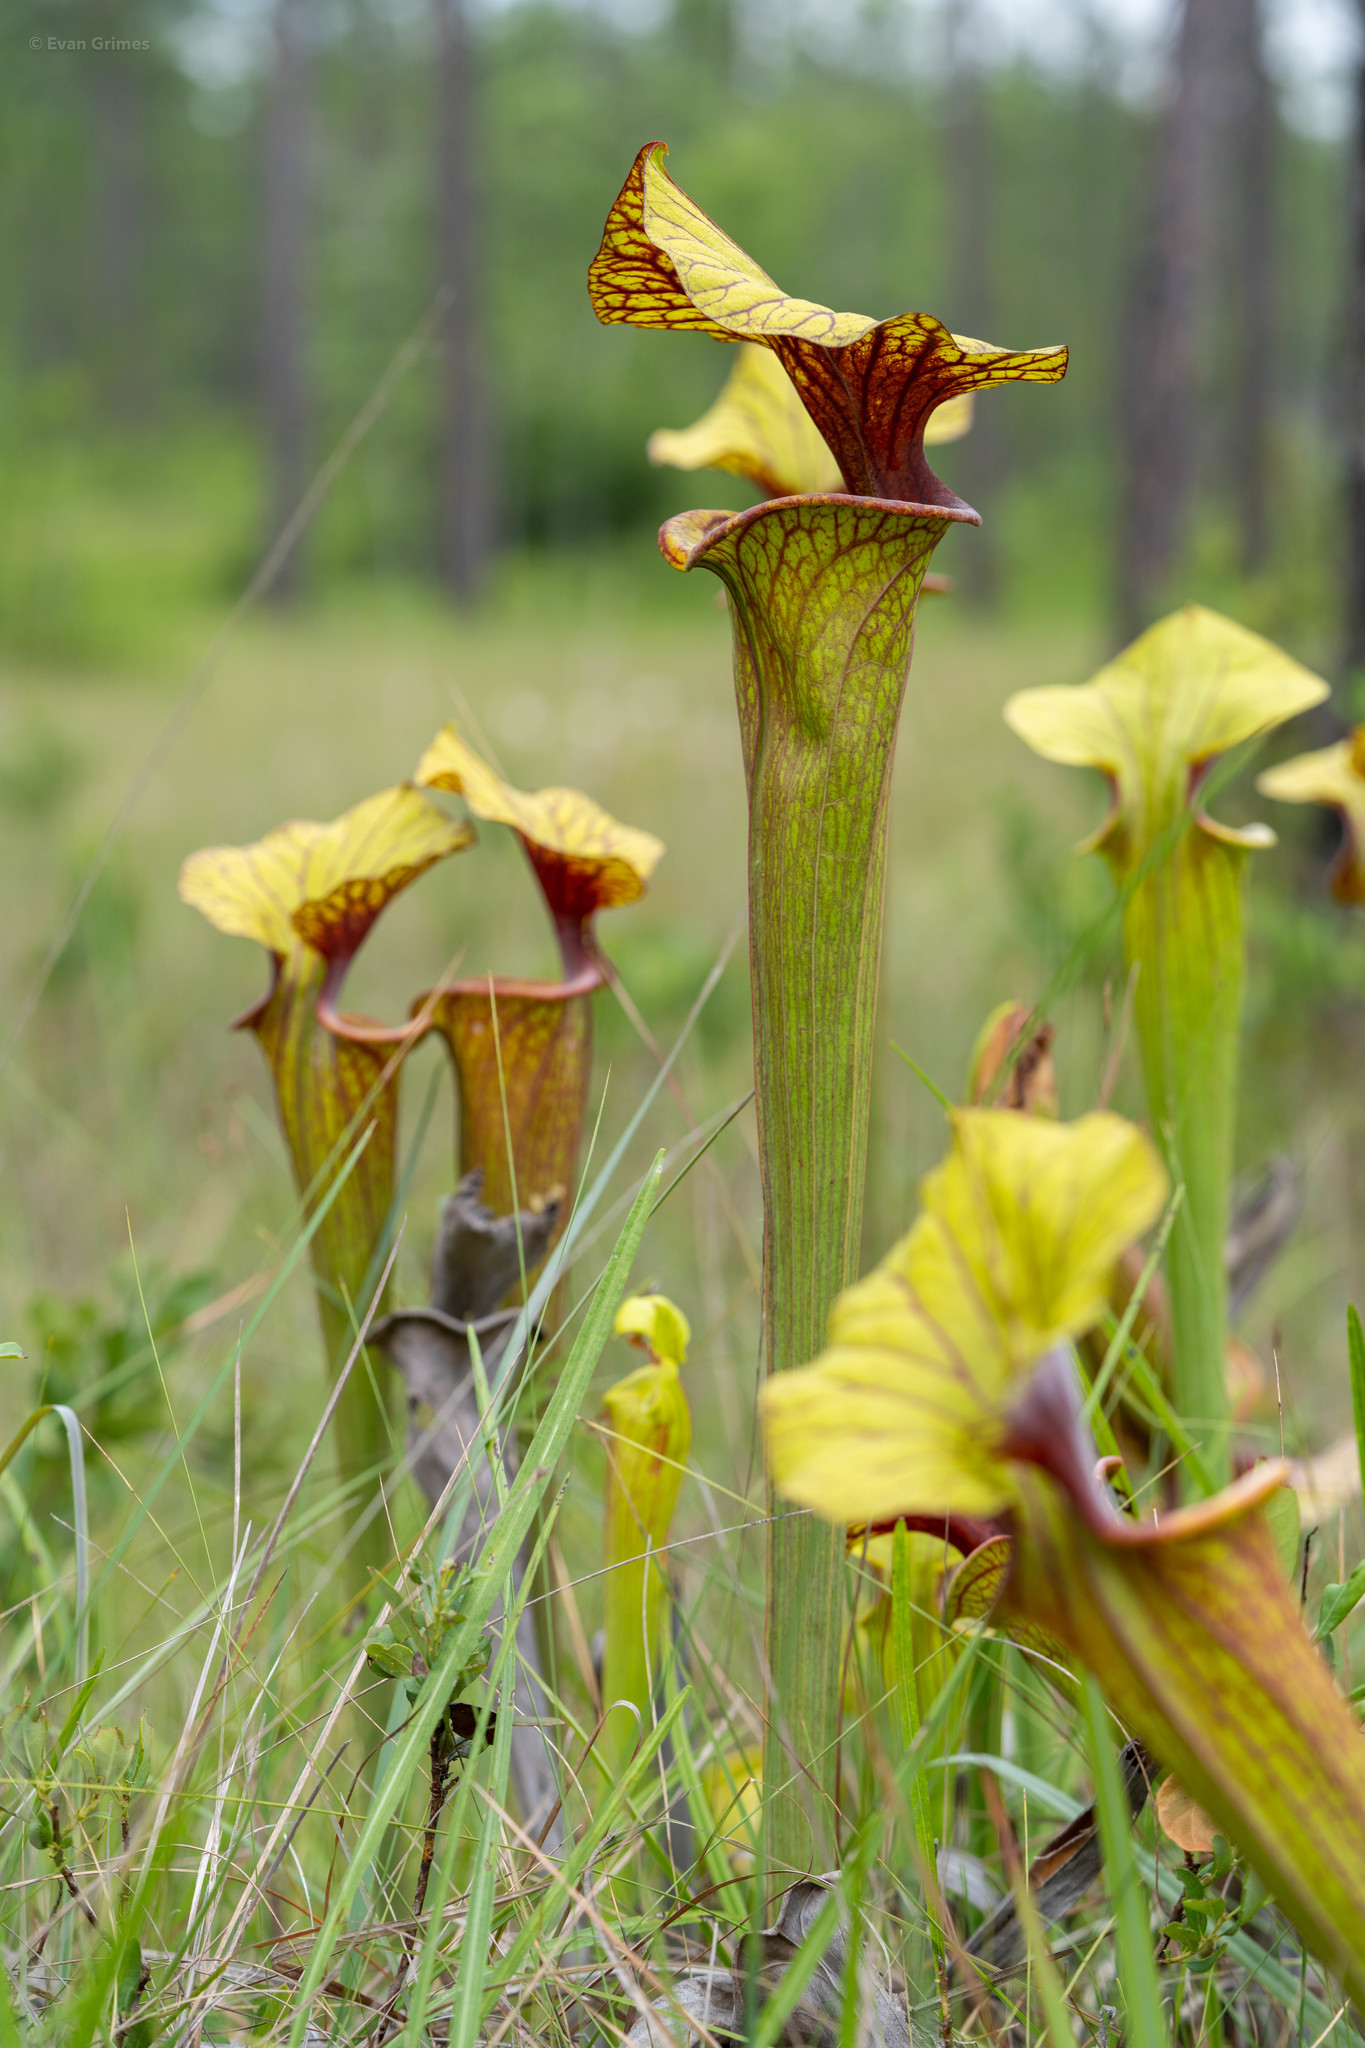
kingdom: Plantae
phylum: Tracheophyta
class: Magnoliopsida
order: Ericales
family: Sarraceniaceae
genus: Sarracenia
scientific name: Sarracenia flava
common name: Trumpets
